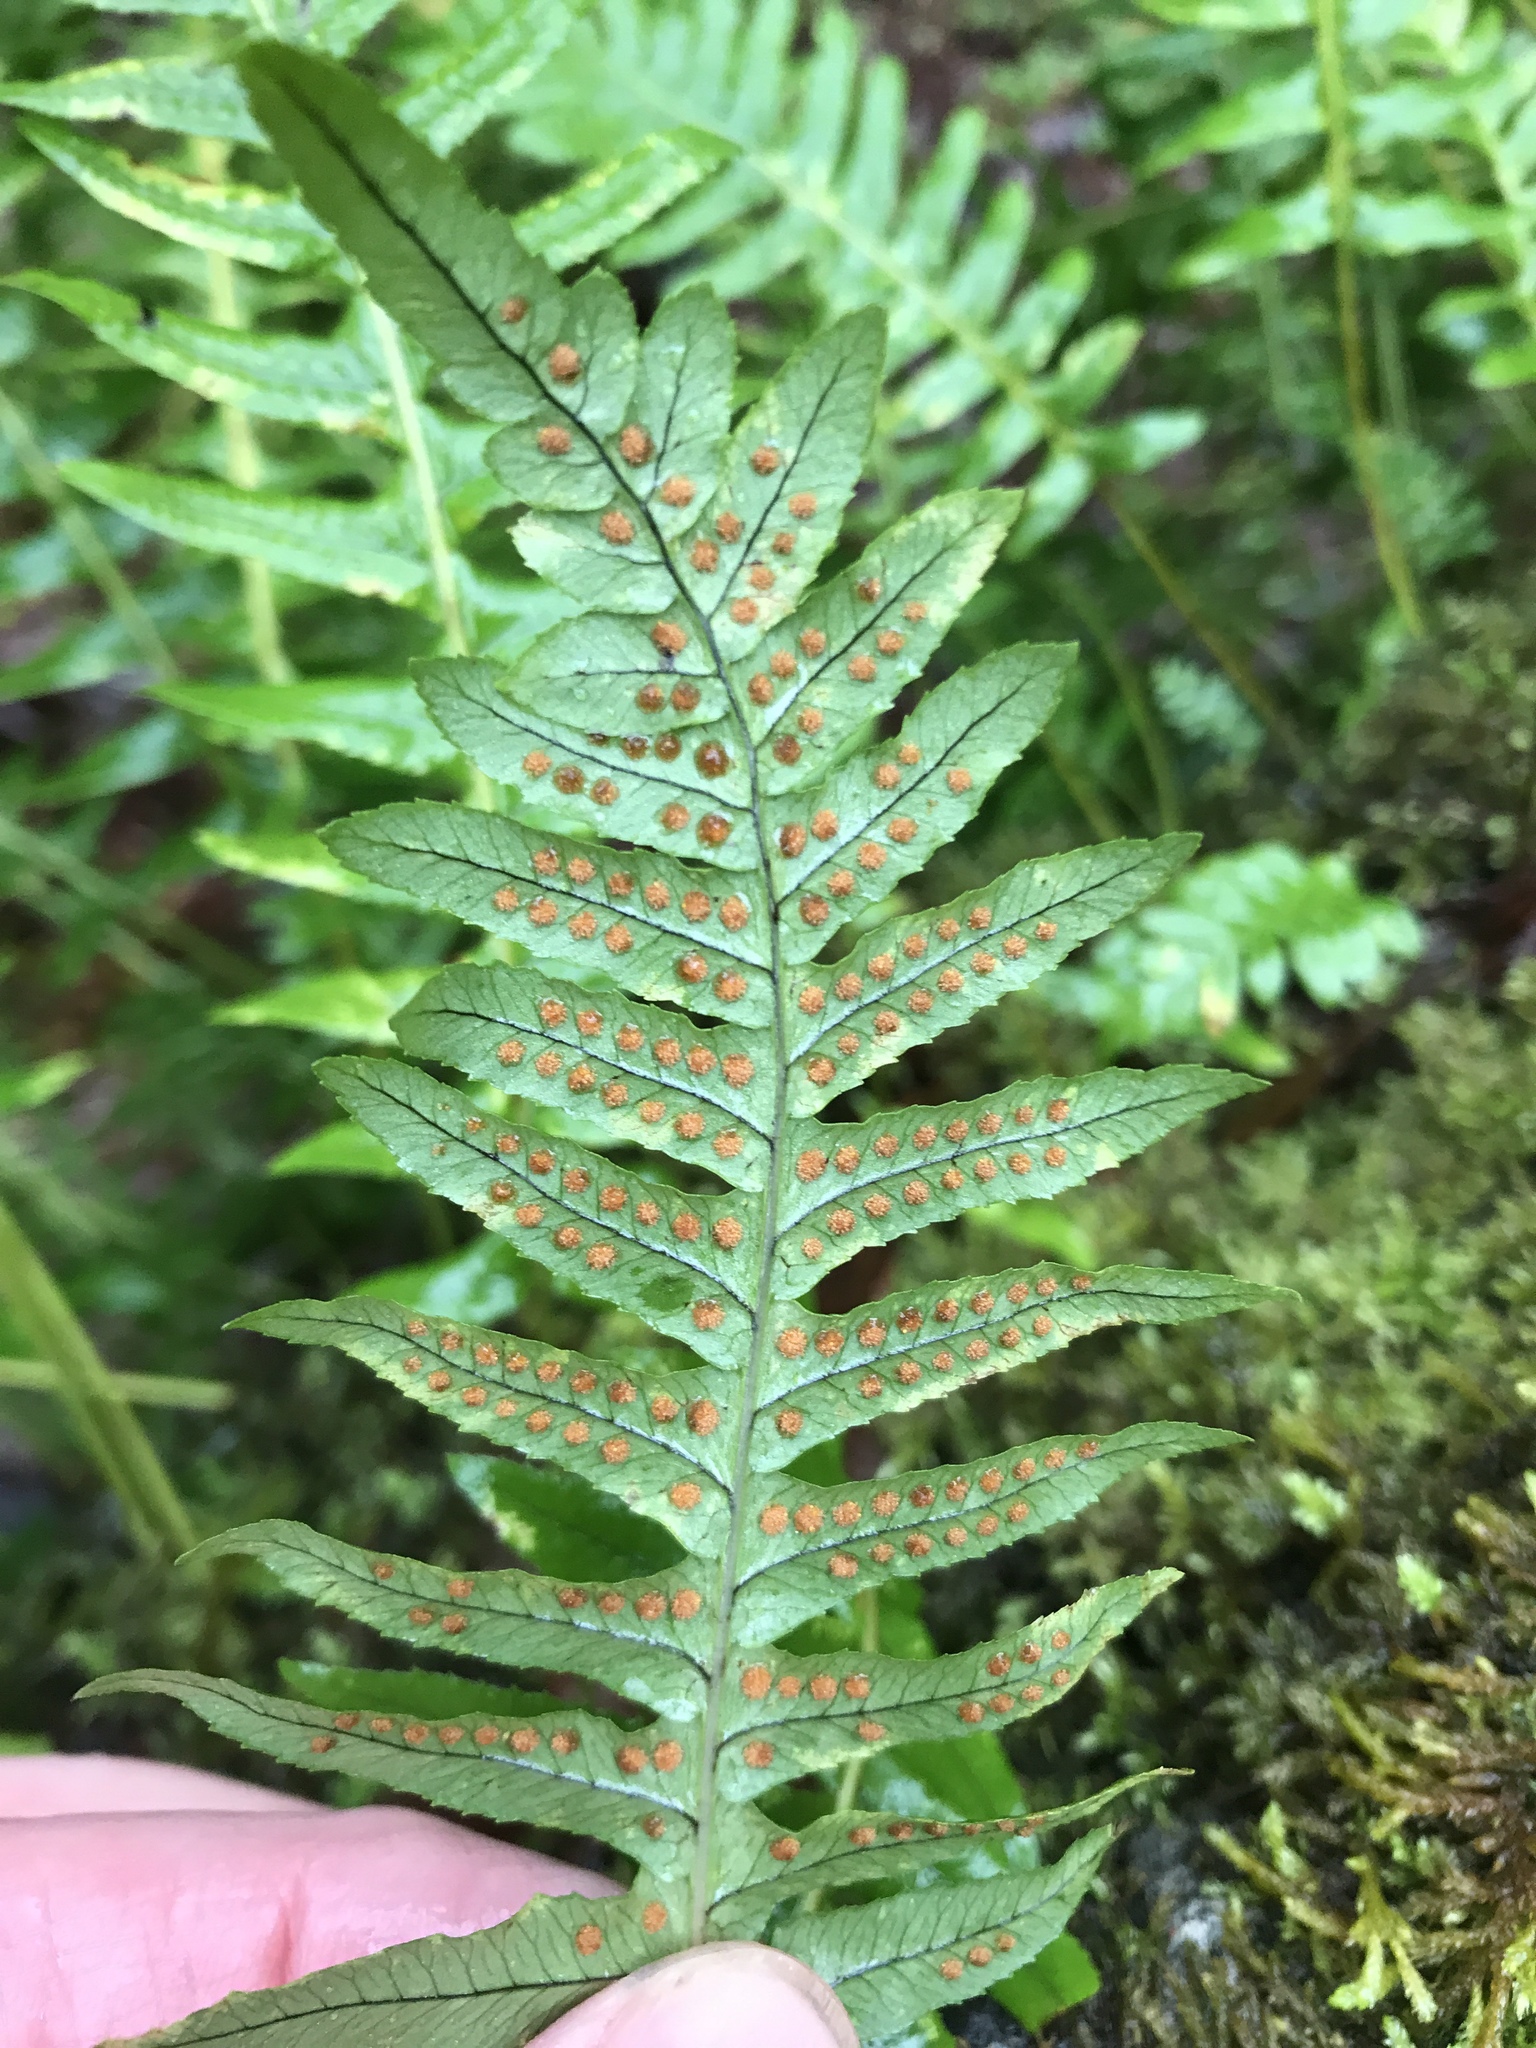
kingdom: Plantae
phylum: Tracheophyta
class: Polypodiopsida
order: Polypodiales
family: Polypodiaceae
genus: Polypodium
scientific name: Polypodium glycyrrhiza
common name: Licorice fern
